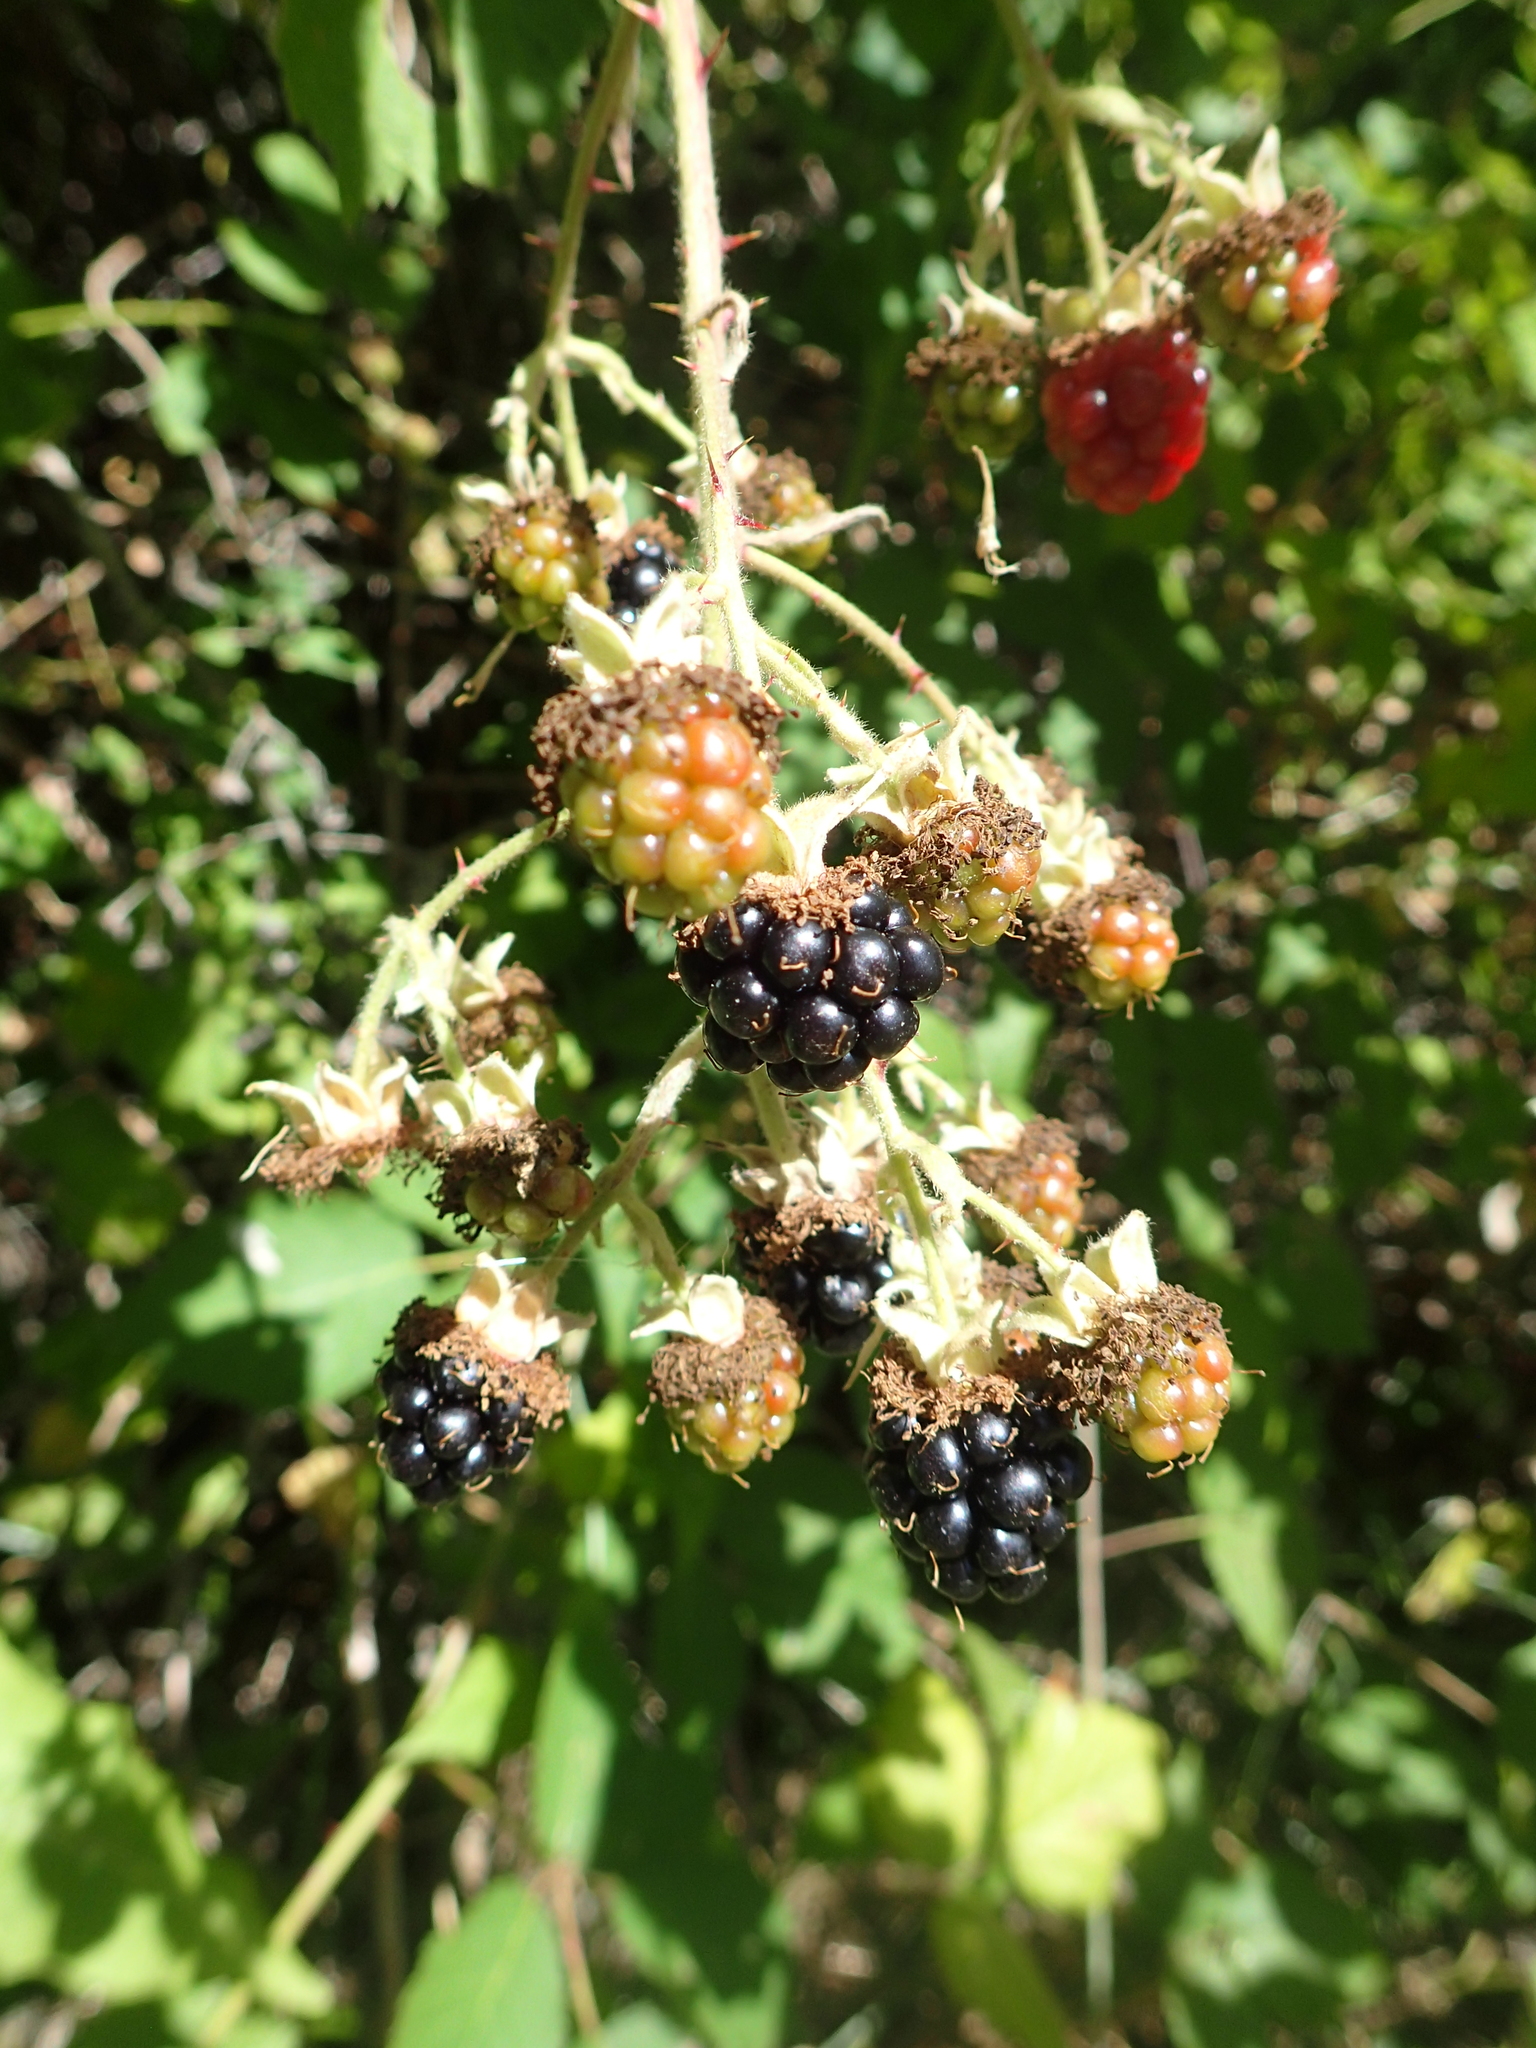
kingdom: Plantae
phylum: Tracheophyta
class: Magnoliopsida
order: Rosales
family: Rosaceae
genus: Rubus
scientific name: Rubus armeniacus
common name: Himalayan blackberry
